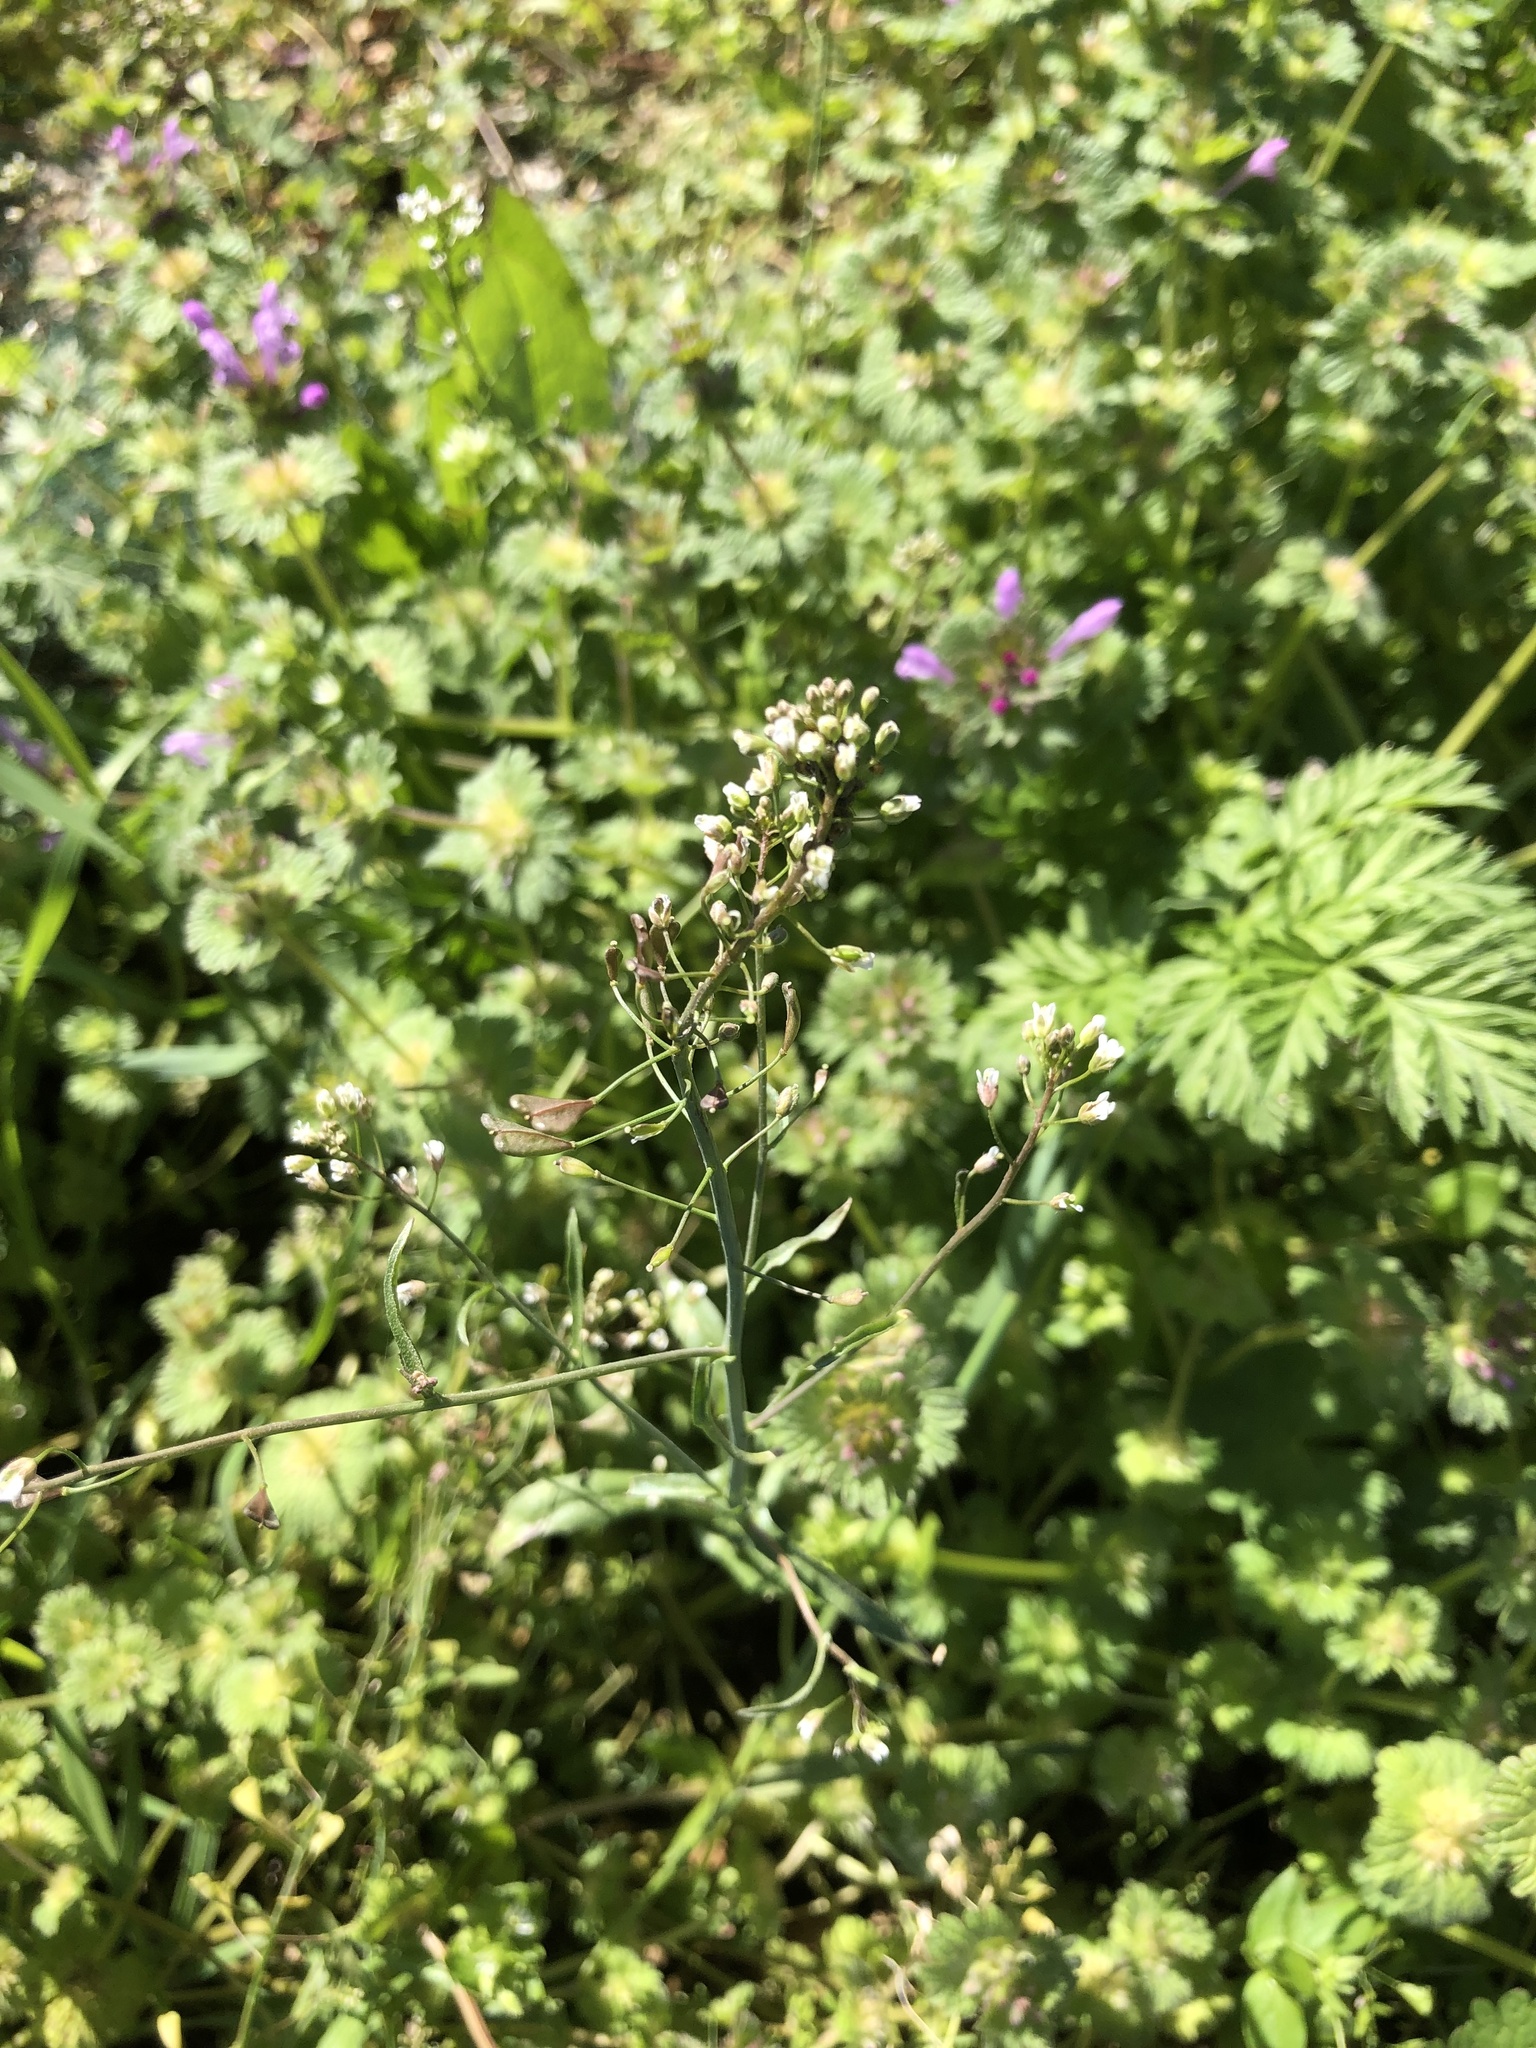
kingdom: Plantae
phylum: Tracheophyta
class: Magnoliopsida
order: Brassicales
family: Brassicaceae
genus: Capsella
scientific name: Capsella bursa-pastoris
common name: Shepherd's purse
